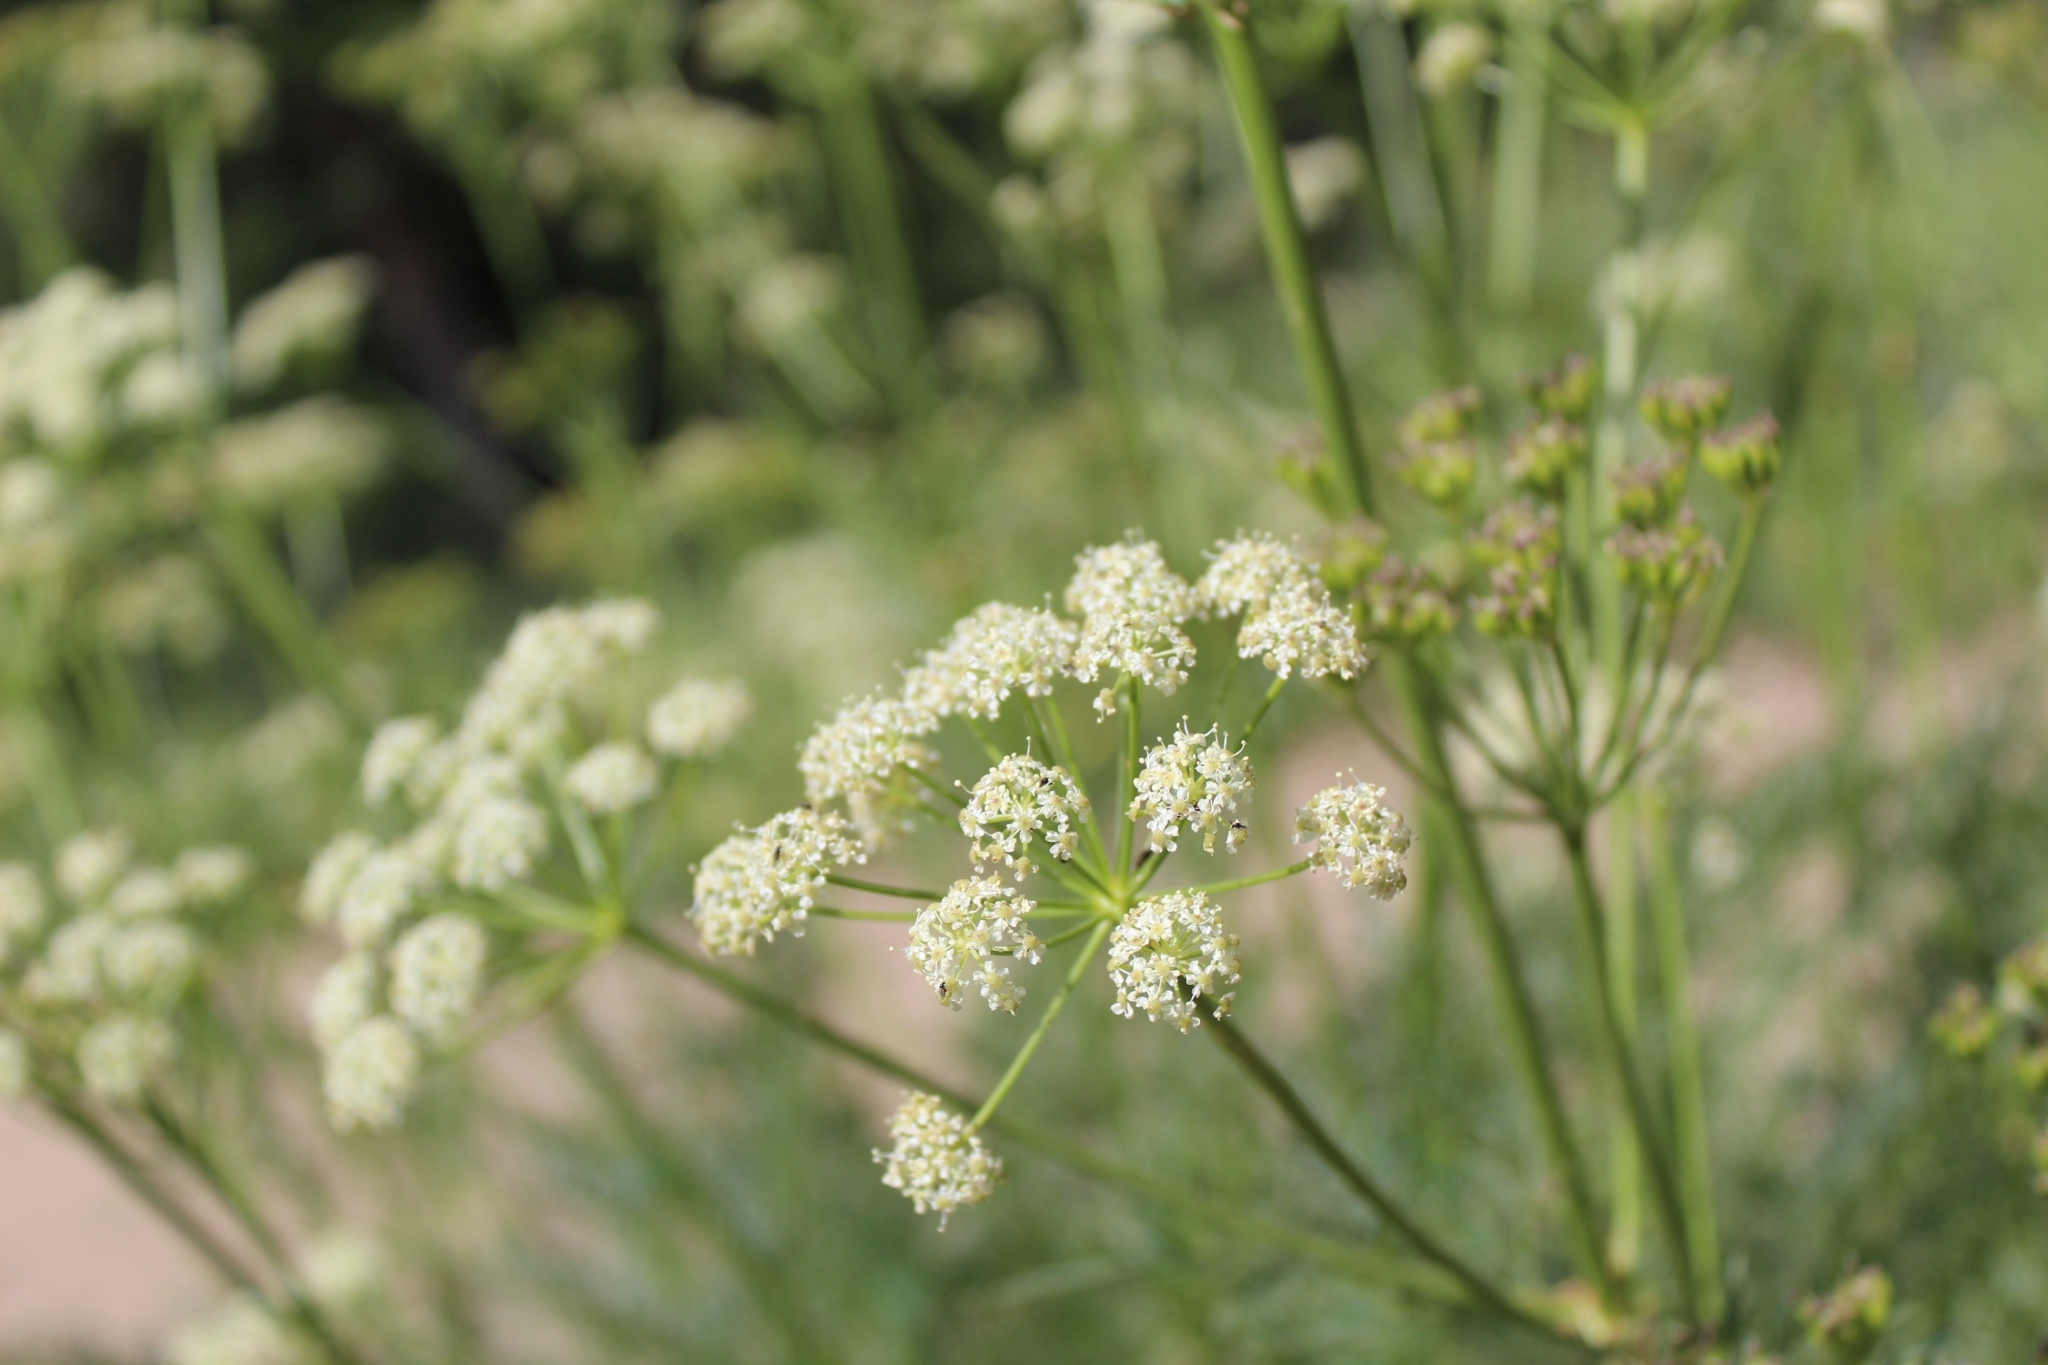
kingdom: Plantae
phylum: Tracheophyta
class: Magnoliopsida
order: Apiales
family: Apiaceae
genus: Cicuta
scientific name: Cicuta douglasii
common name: Western water-hemlock
